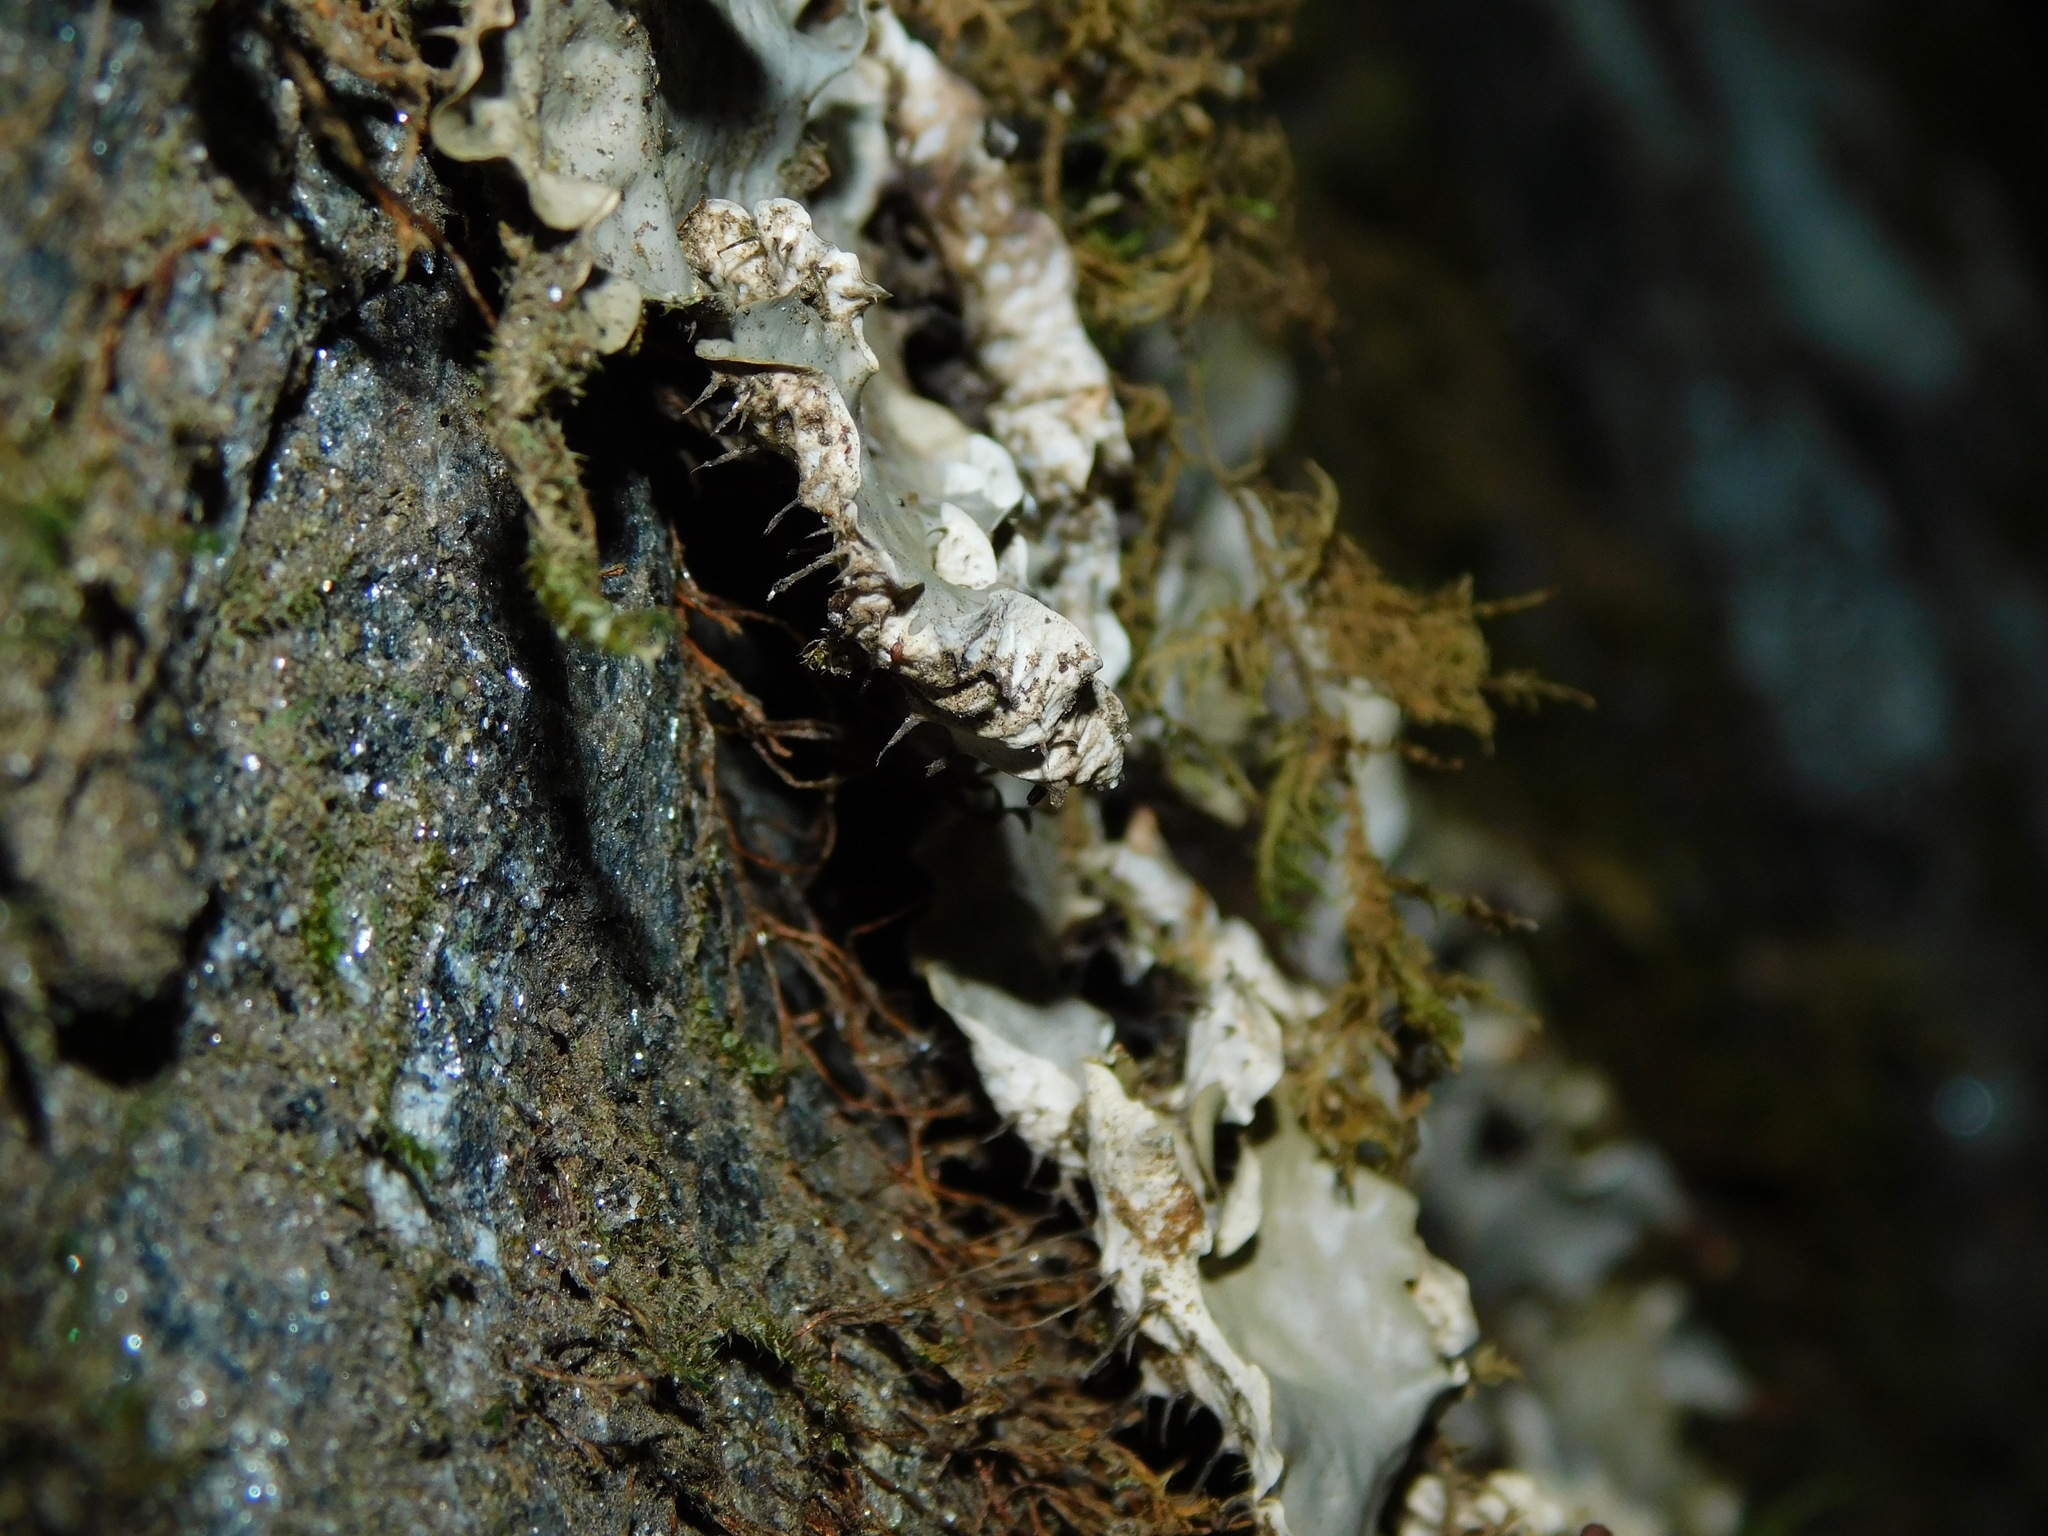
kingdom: Fungi
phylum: Ascomycota
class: Lecanoromycetes
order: Peltigerales
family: Peltigeraceae
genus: Peltigera
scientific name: Peltigera neopolydactyla
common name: Carpet pelt
